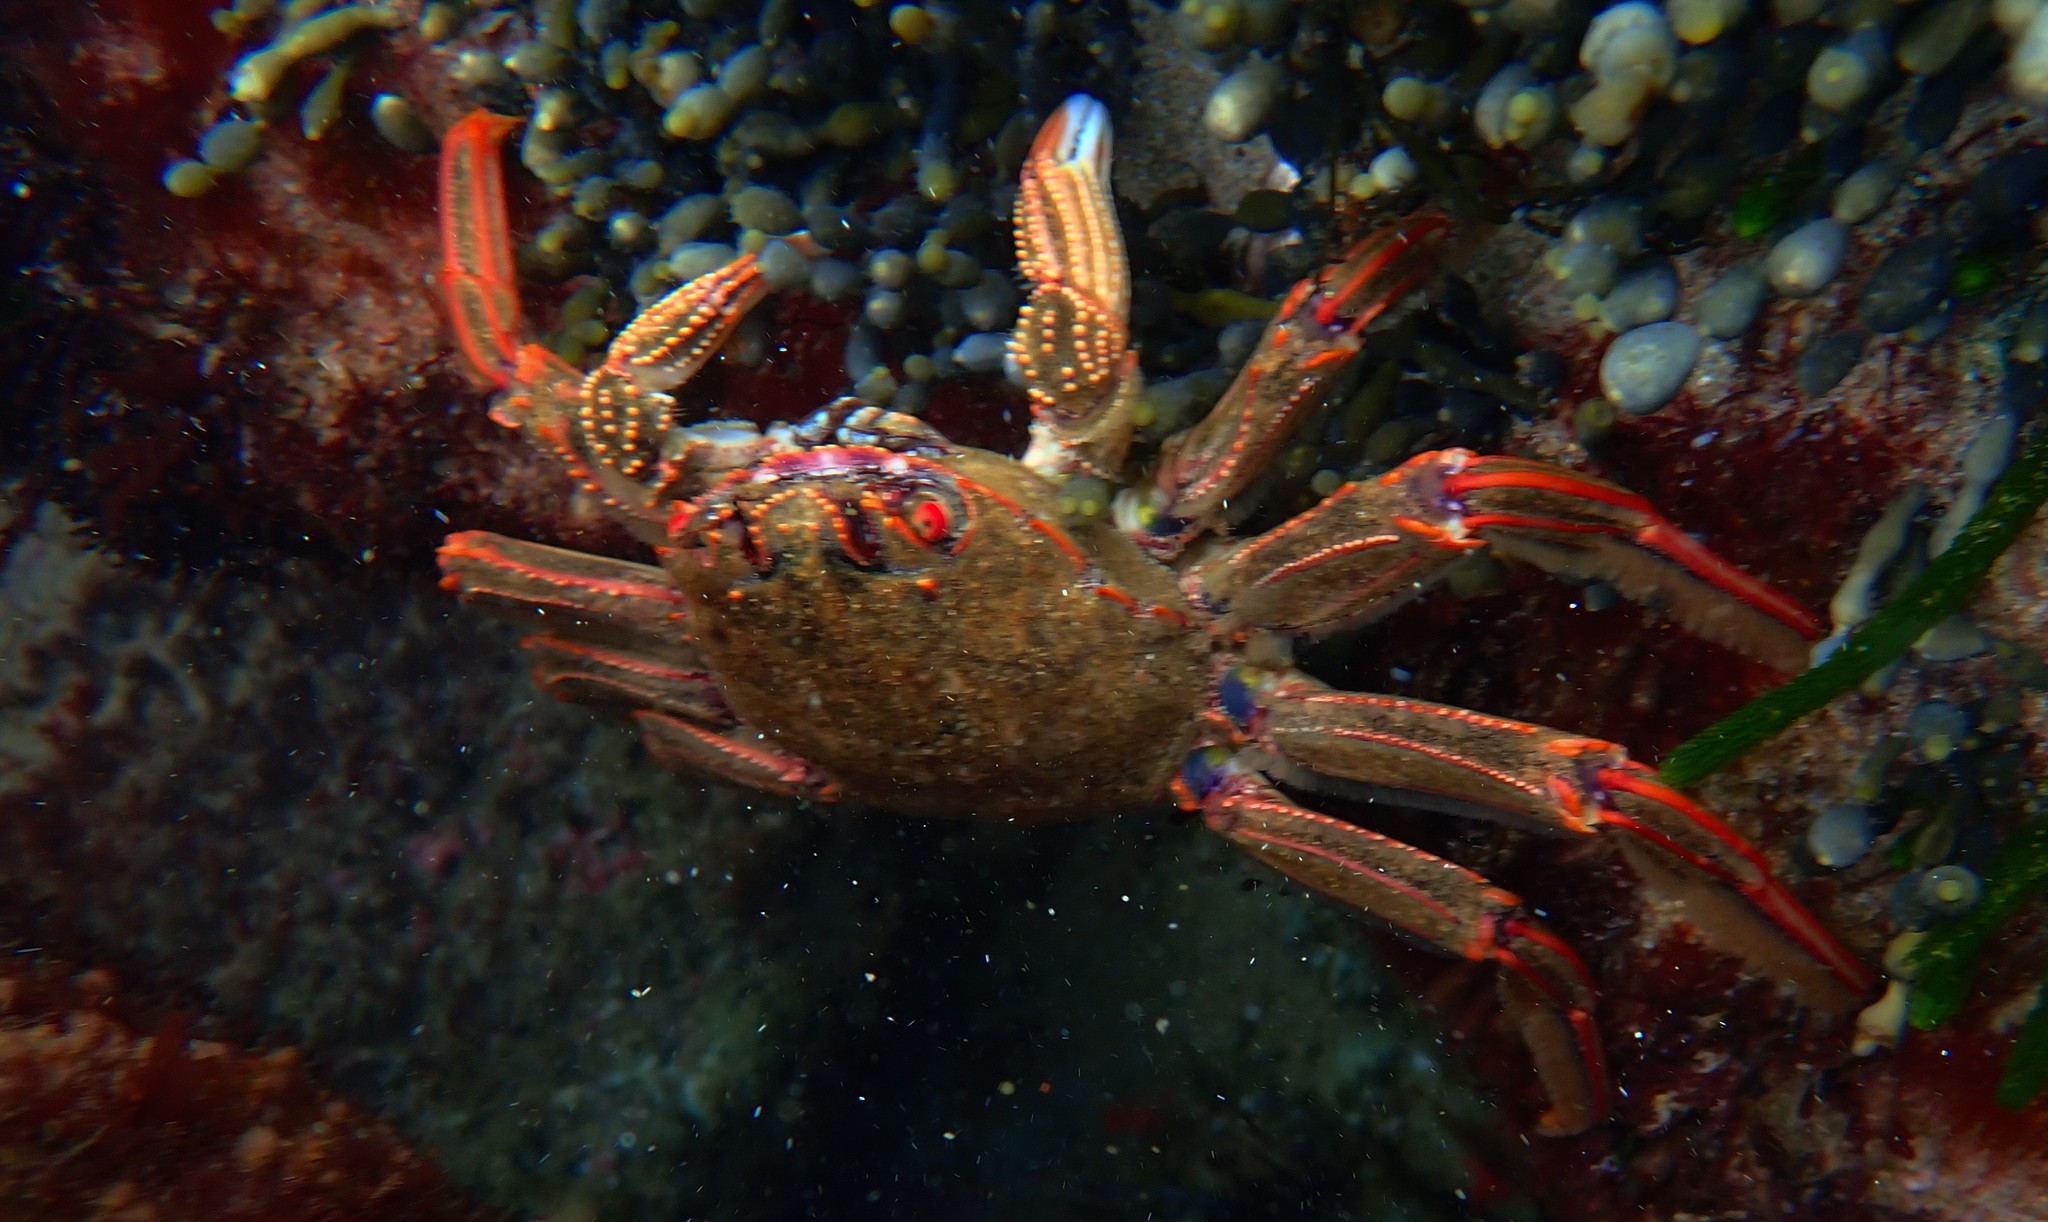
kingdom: Animalia
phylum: Arthropoda
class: Malacostraca
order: Decapoda
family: Plagusiidae
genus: Guinusia
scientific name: Guinusia chabrus
